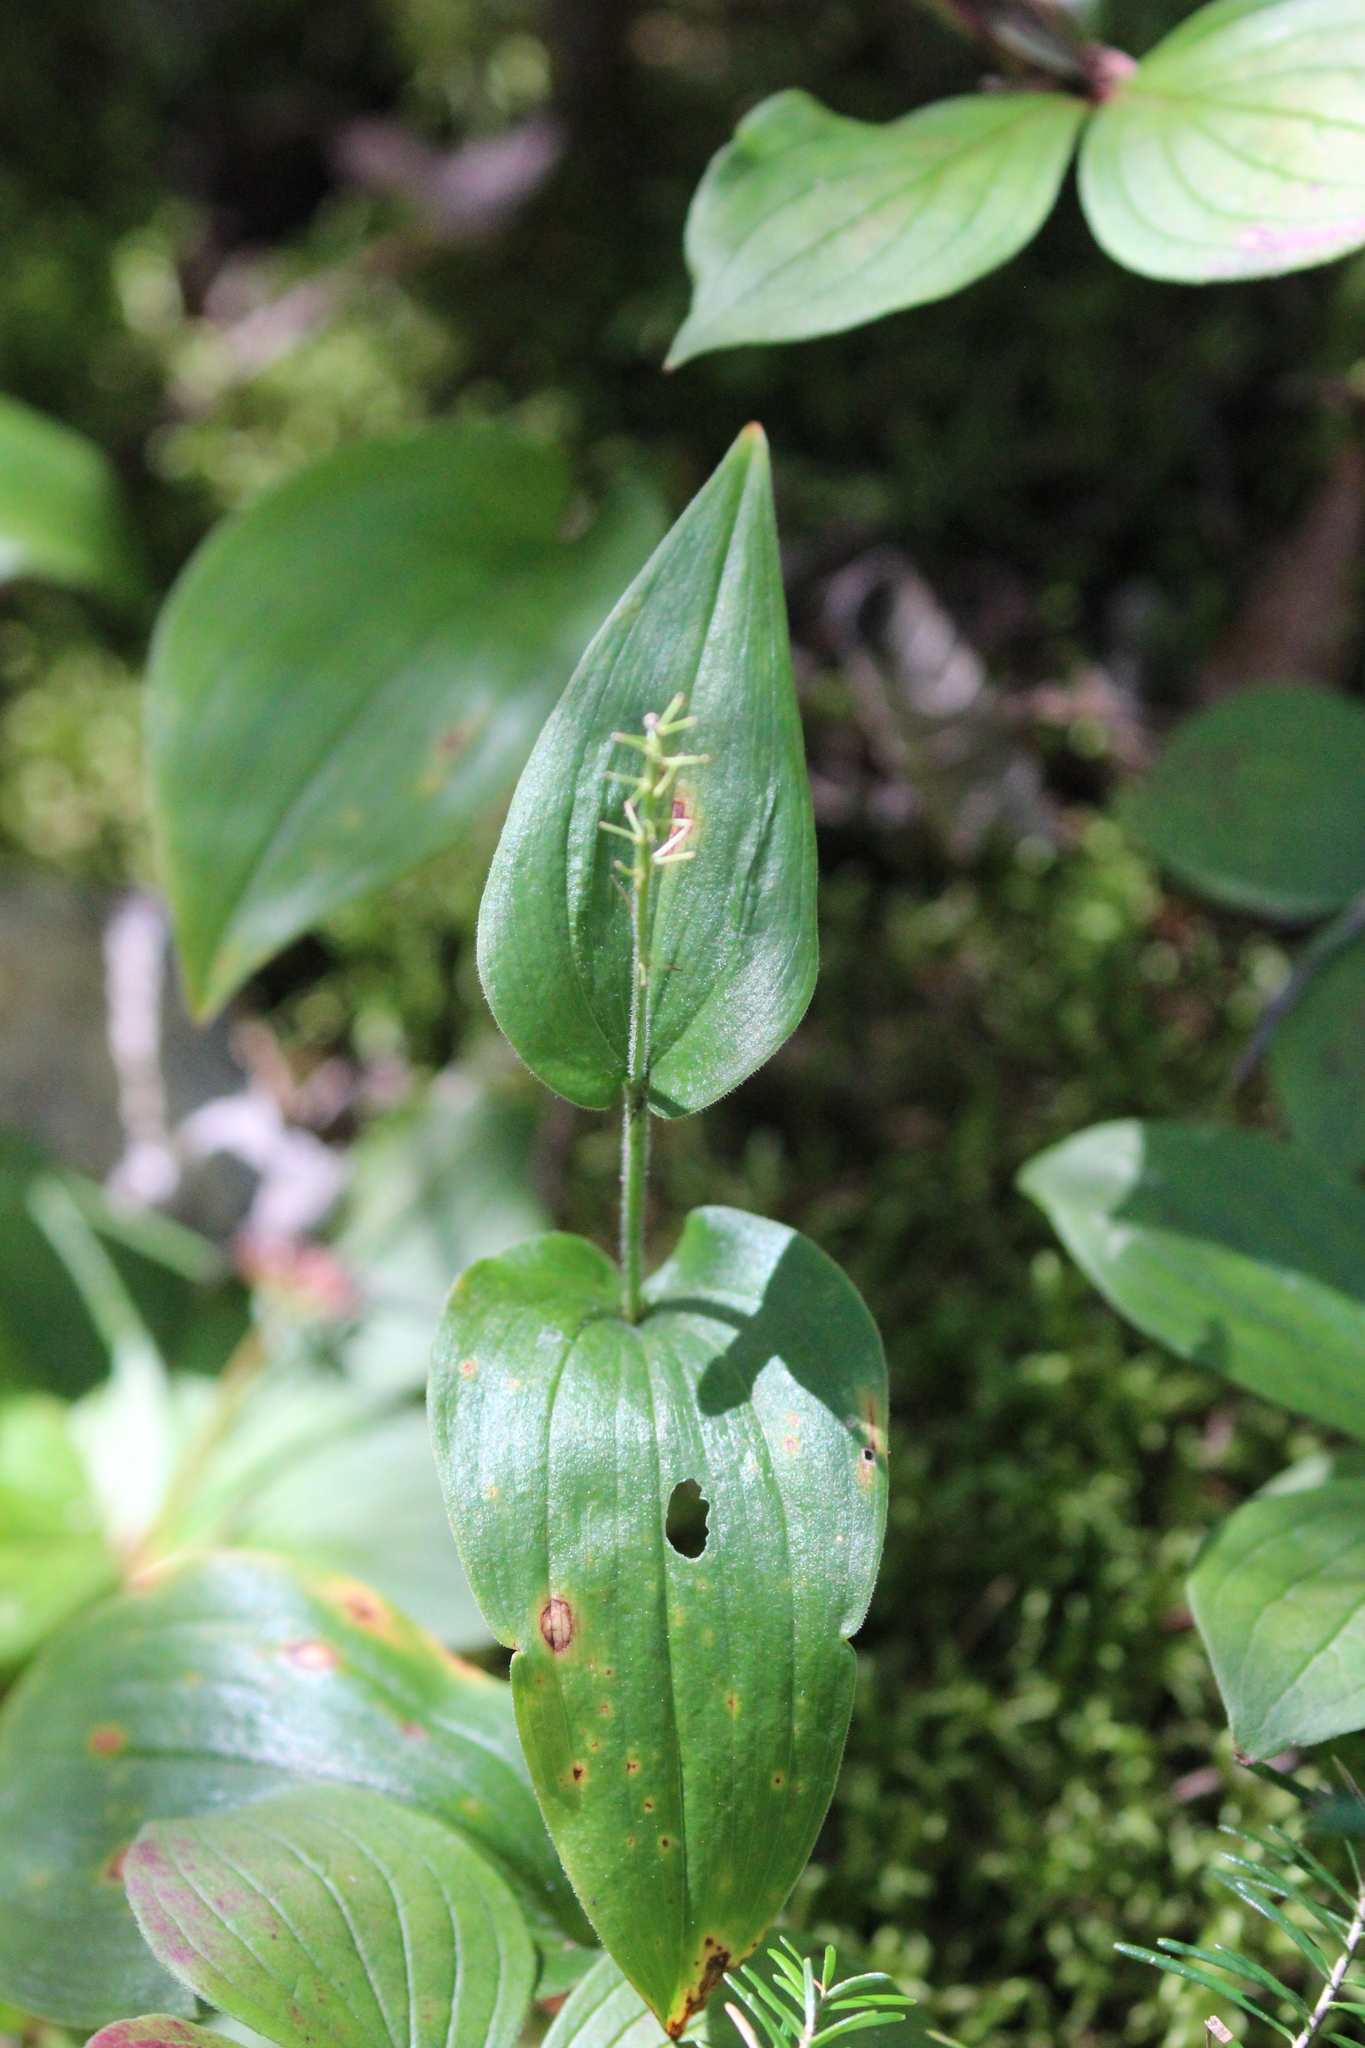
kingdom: Plantae
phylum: Tracheophyta
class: Liliopsida
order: Asparagales
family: Asparagaceae
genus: Maianthemum
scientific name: Maianthemum canadense
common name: False lily-of-the-valley
